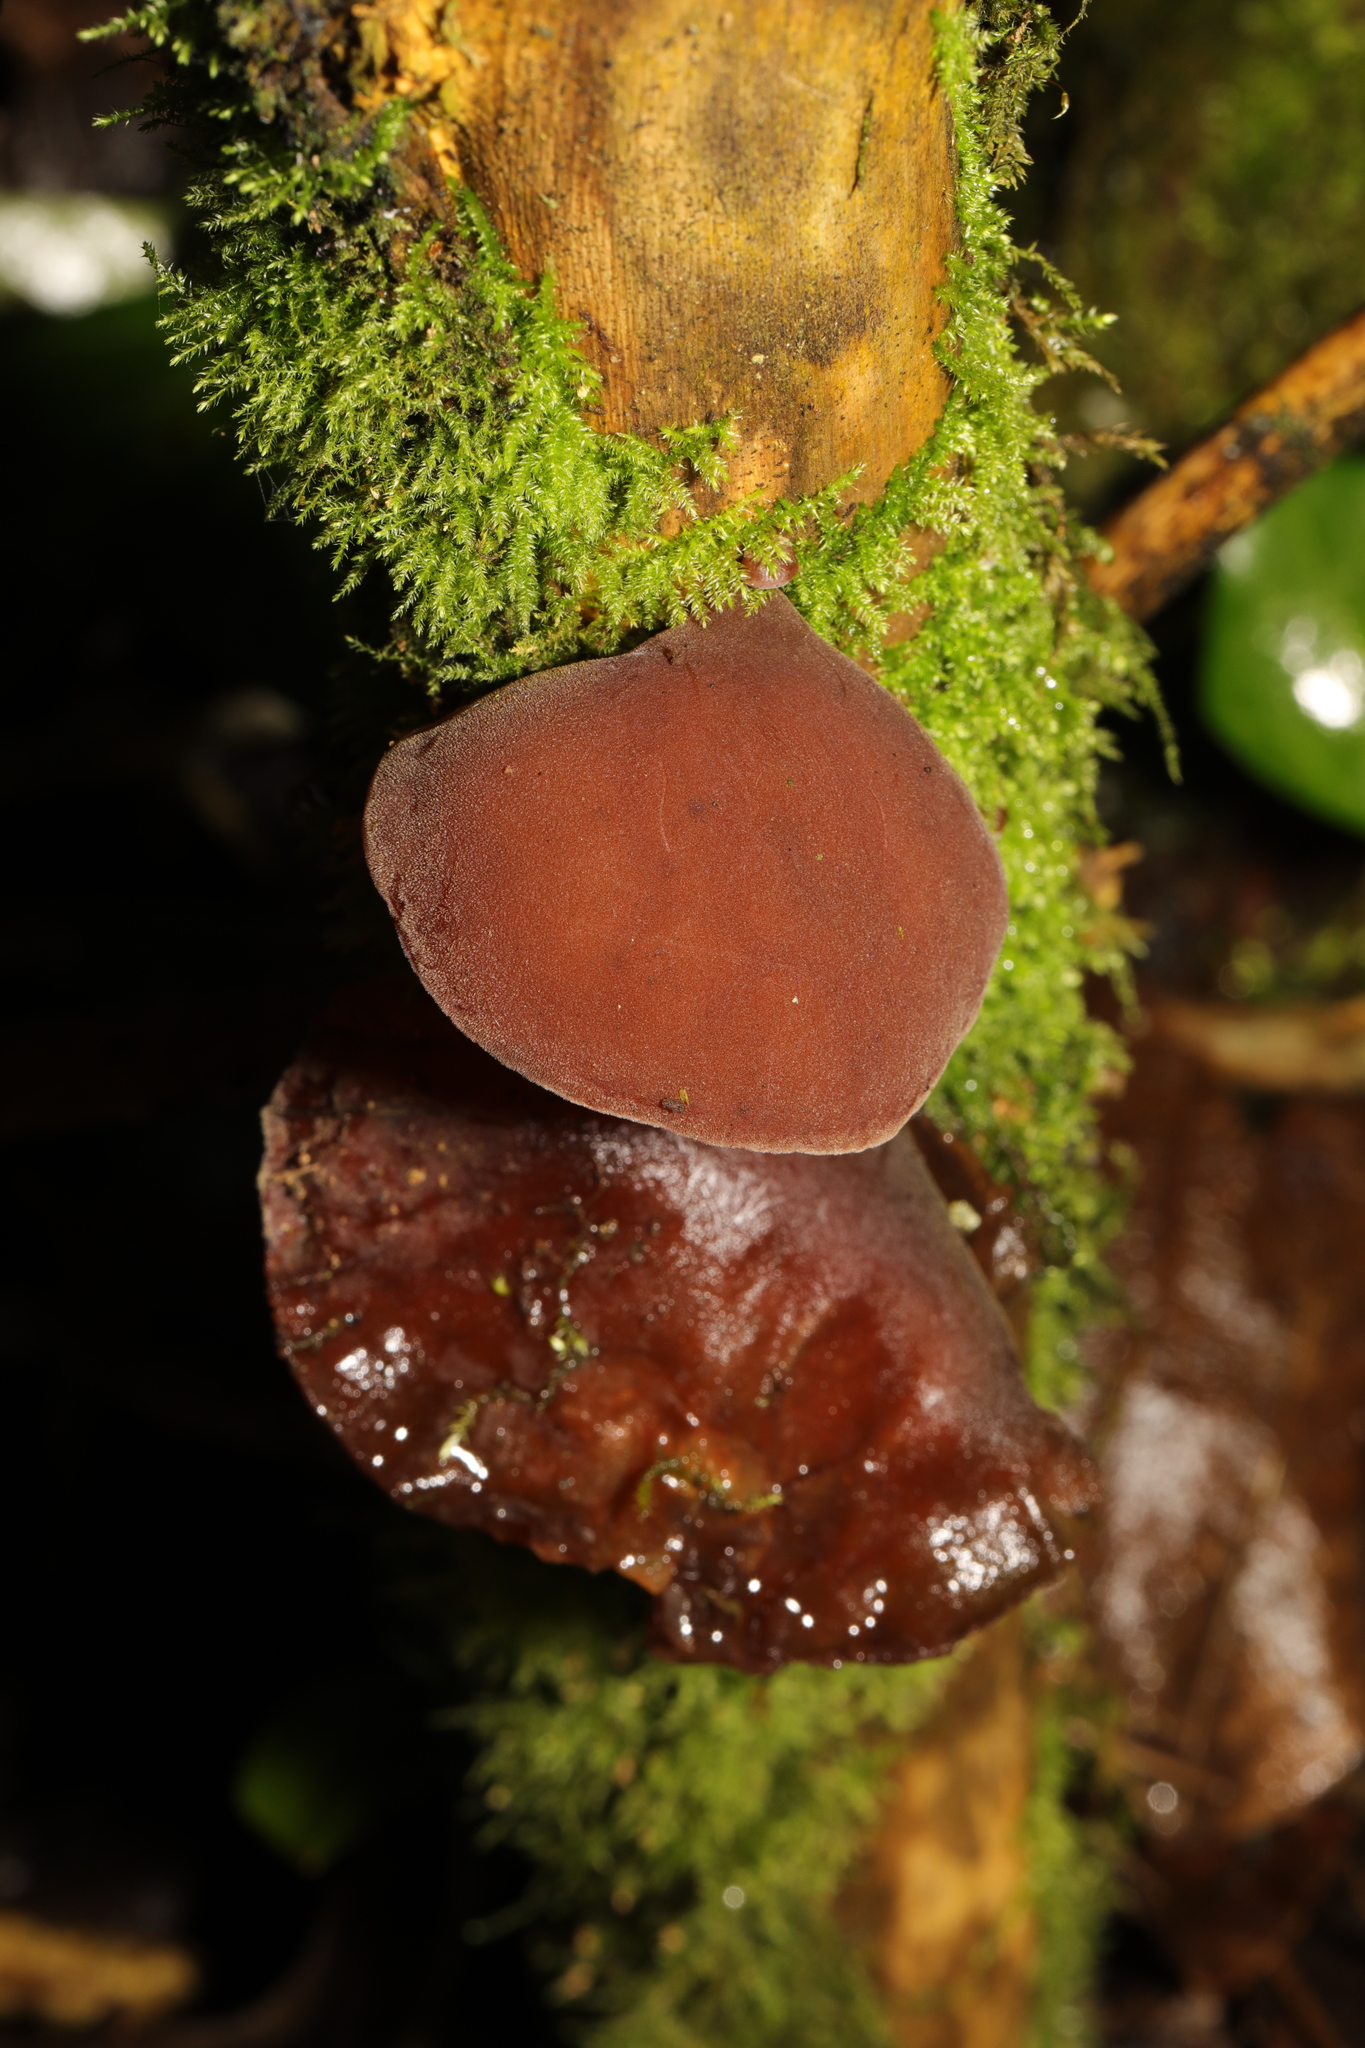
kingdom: Fungi
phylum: Basidiomycota
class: Agaricomycetes
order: Auriculariales
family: Auriculariaceae
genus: Auricularia
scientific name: Auricularia auricula-judae
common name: Jelly ear
